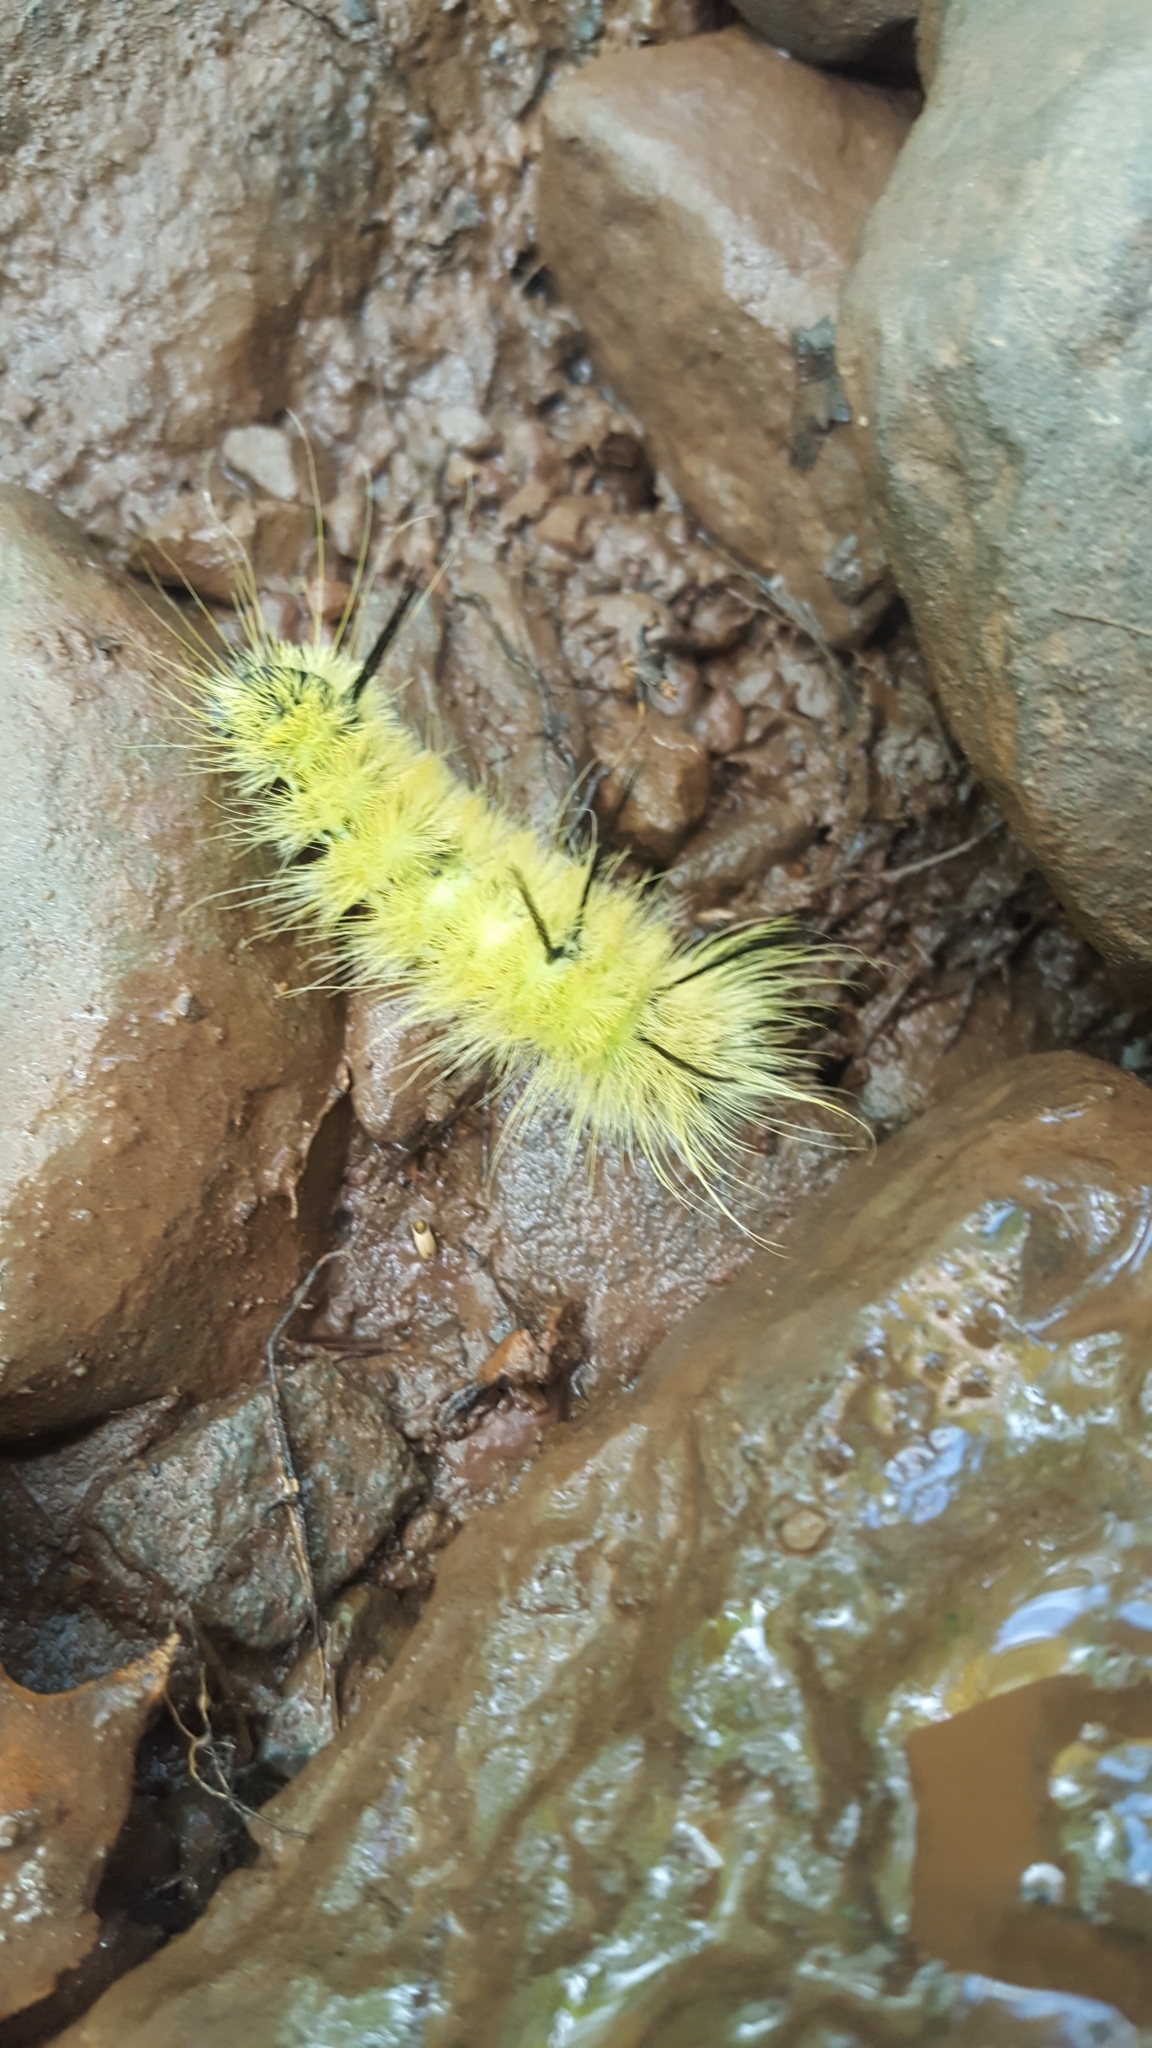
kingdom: Animalia
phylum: Arthropoda
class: Insecta
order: Lepidoptera
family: Noctuidae
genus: Acronicta
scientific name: Acronicta americana
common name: American dagger
